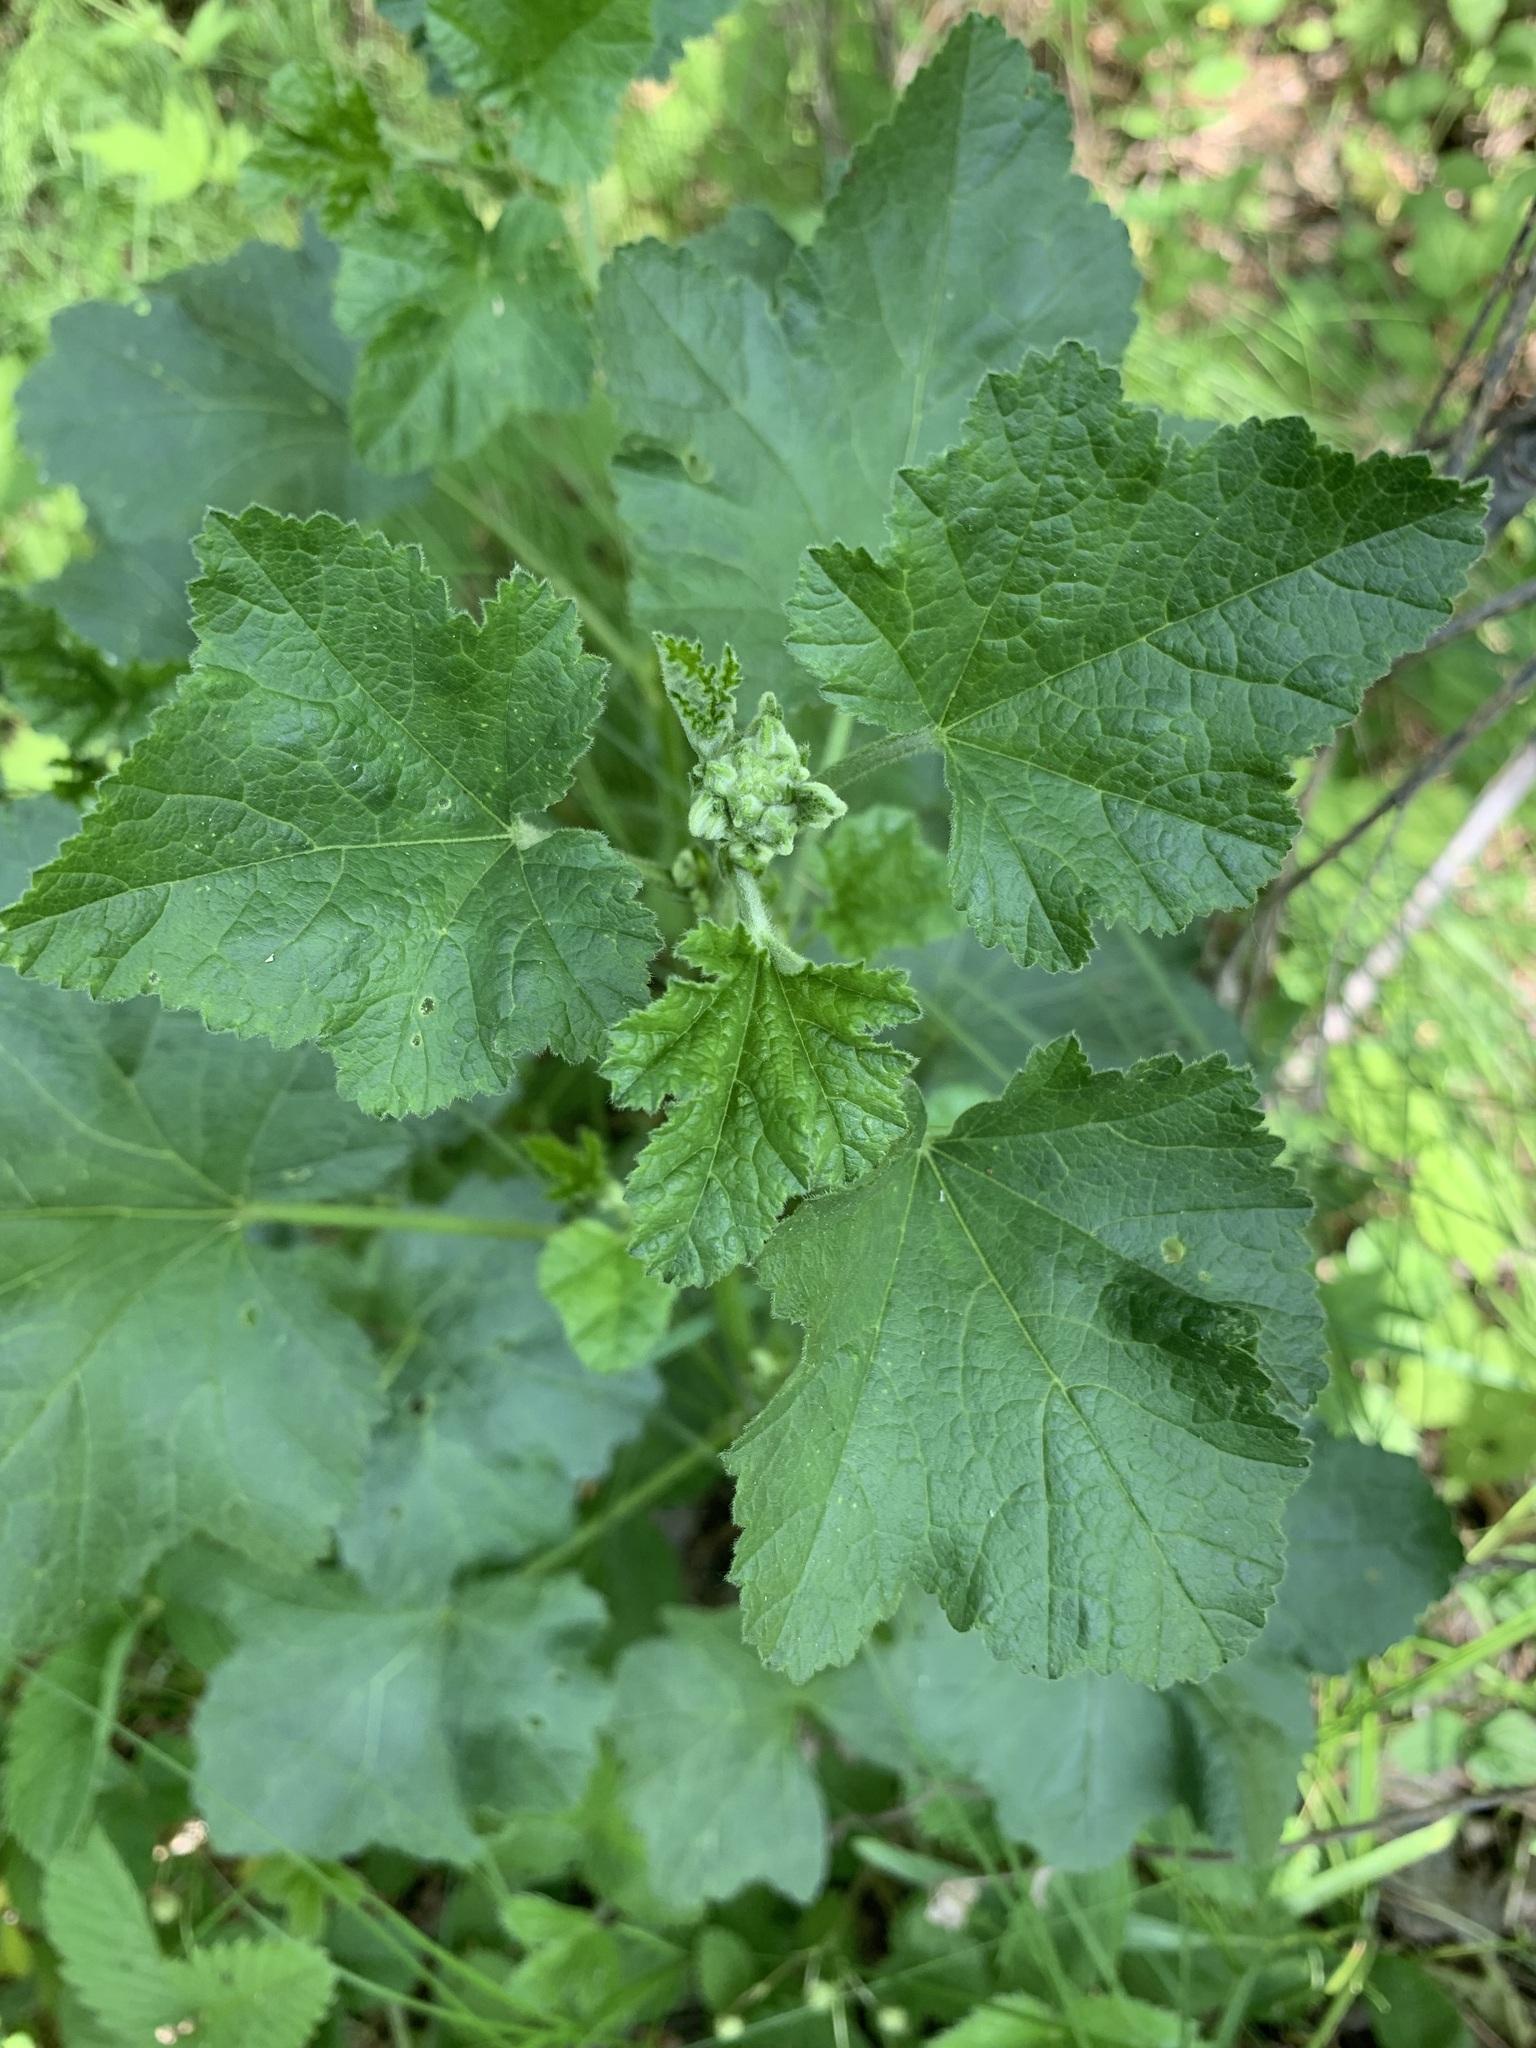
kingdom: Plantae
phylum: Tracheophyta
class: Magnoliopsida
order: Malvales
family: Malvaceae
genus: Malva
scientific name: Malva thuringiaca
